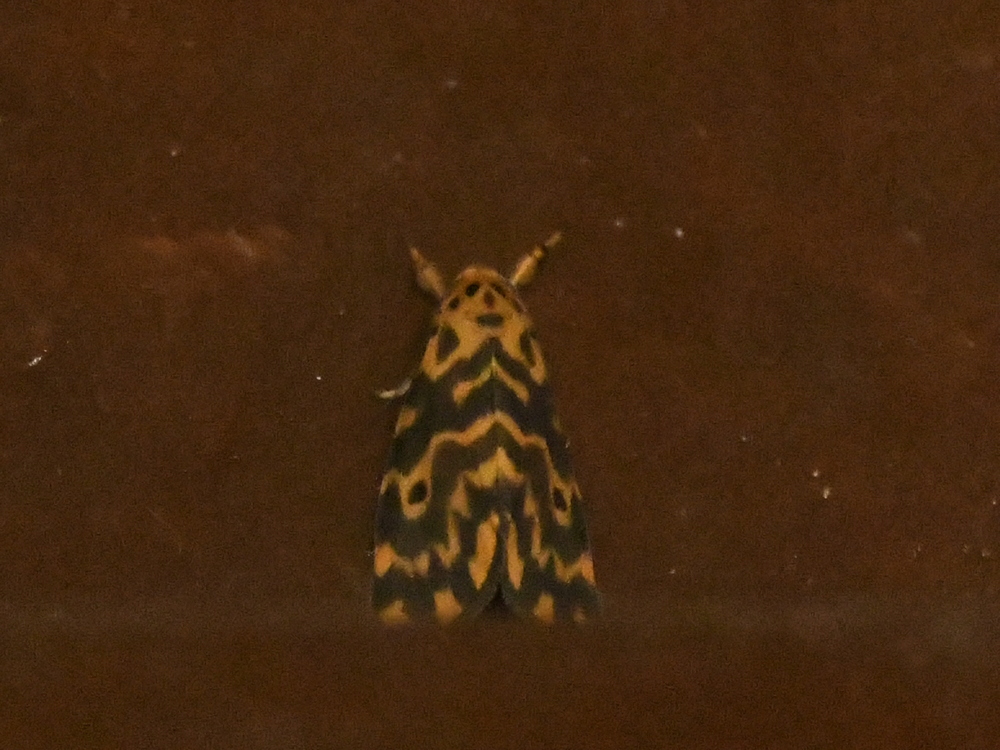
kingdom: Animalia
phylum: Arthropoda
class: Insecta
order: Lepidoptera
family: Erebidae
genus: Nepita
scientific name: Nepita conferta
